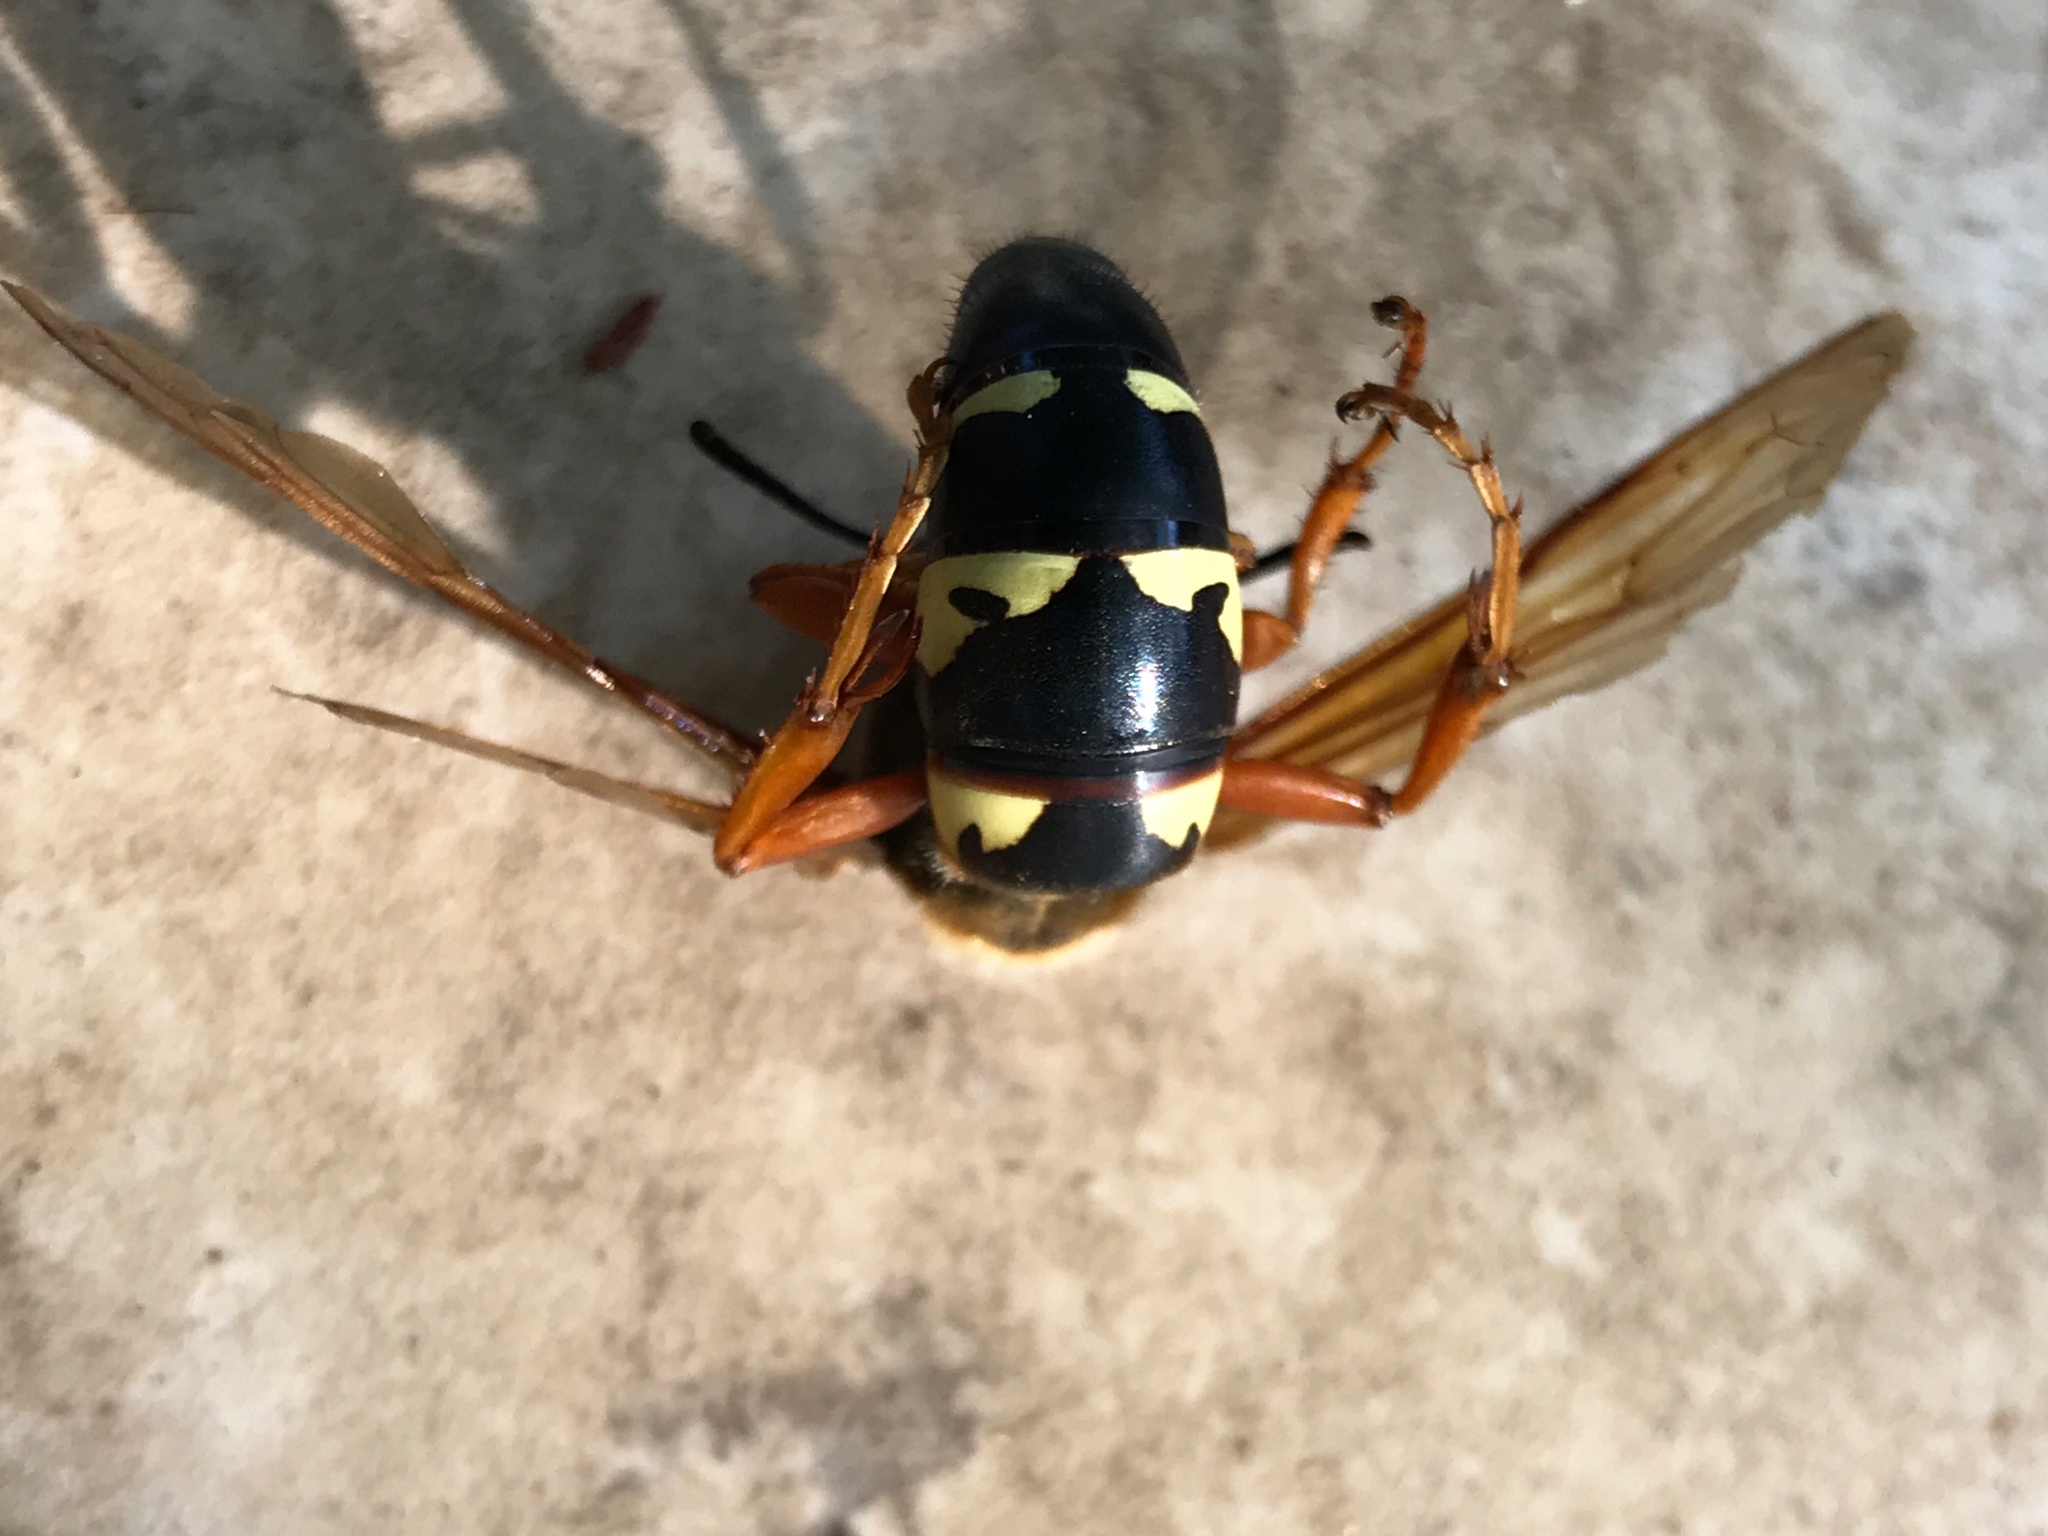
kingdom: Animalia
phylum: Arthropoda
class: Insecta
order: Hymenoptera
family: Crabronidae
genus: Sphecius
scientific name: Sphecius speciosus
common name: Cicada killer
